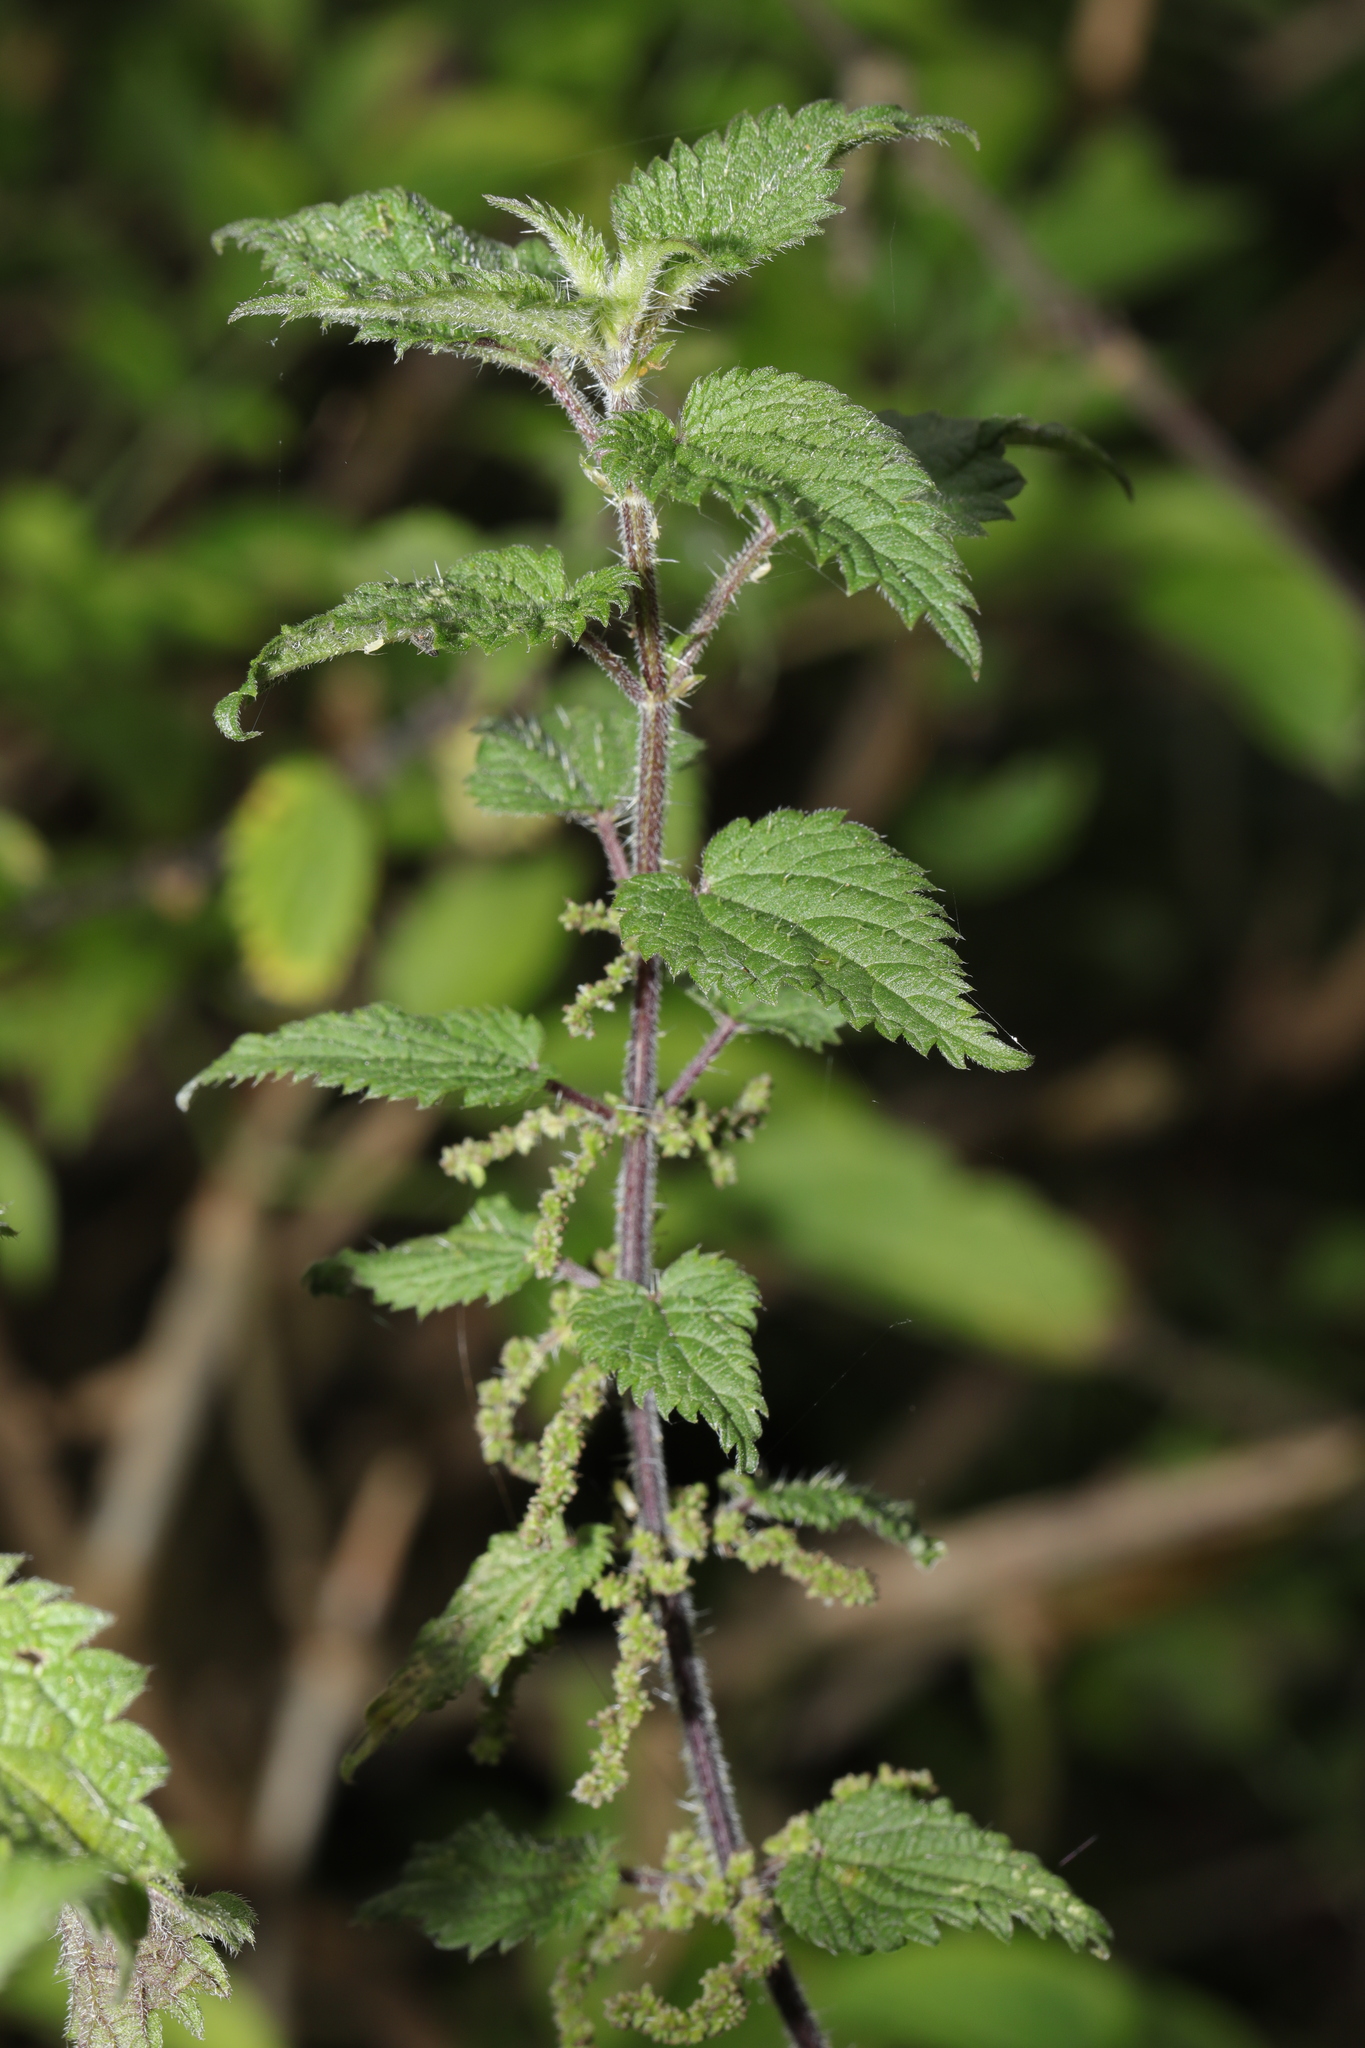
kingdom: Plantae
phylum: Tracheophyta
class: Magnoliopsida
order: Rosales
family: Urticaceae
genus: Urtica
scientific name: Urtica dioica
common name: Common nettle
